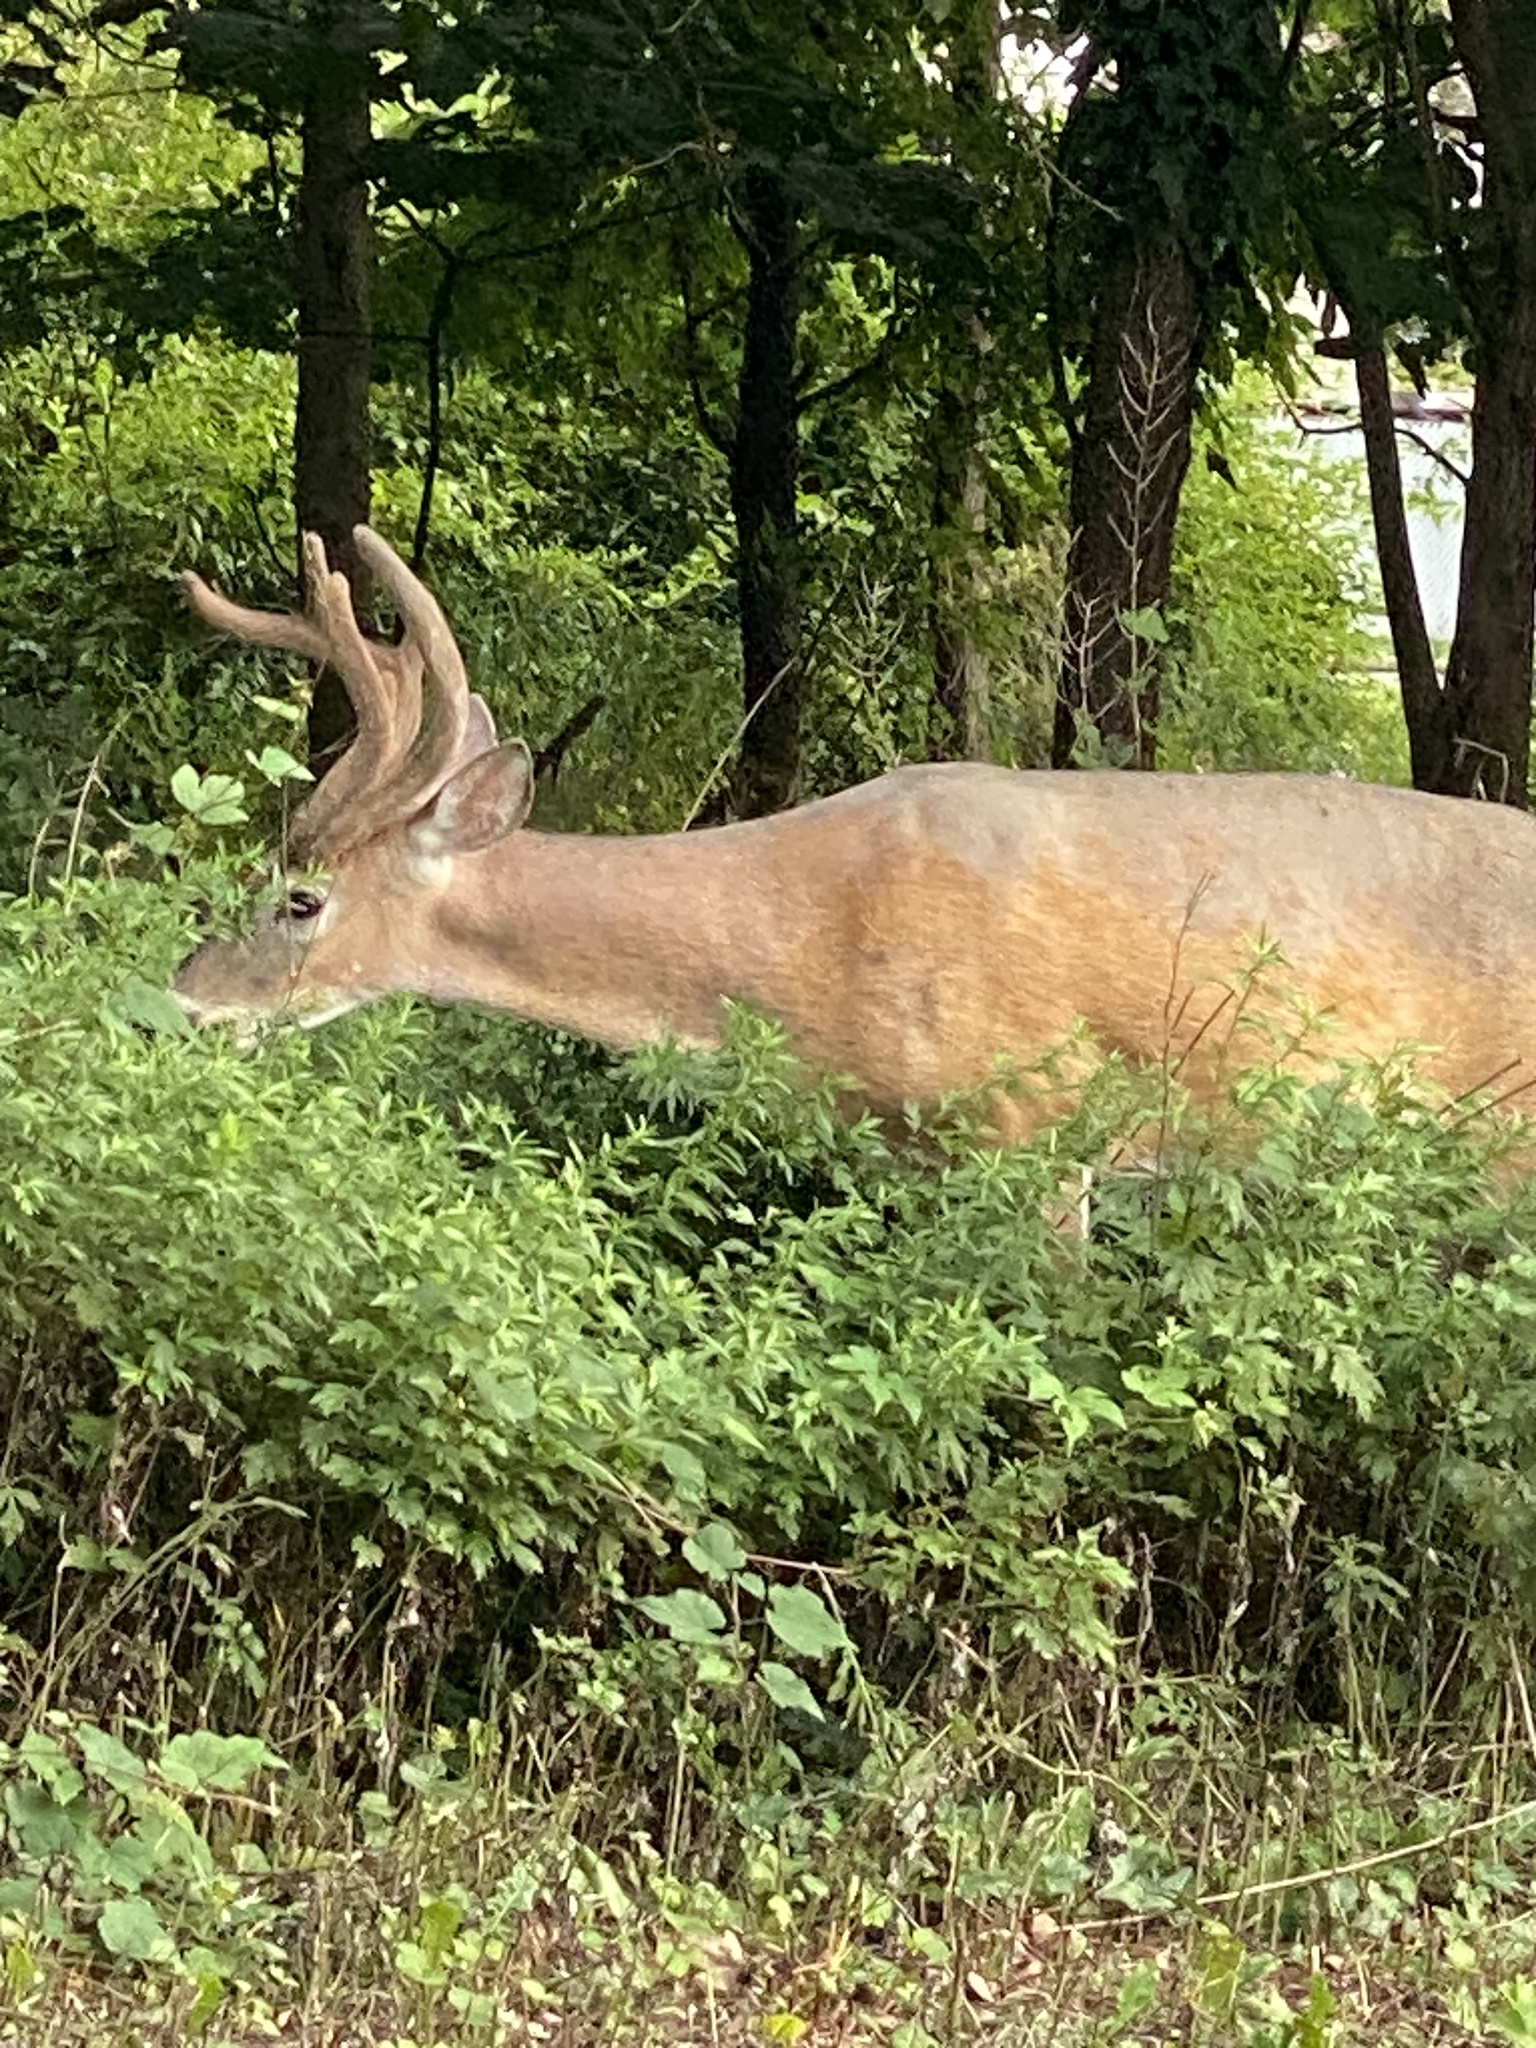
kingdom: Animalia
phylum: Chordata
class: Mammalia
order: Artiodactyla
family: Cervidae
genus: Odocoileus
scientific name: Odocoileus virginianus
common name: White-tailed deer
